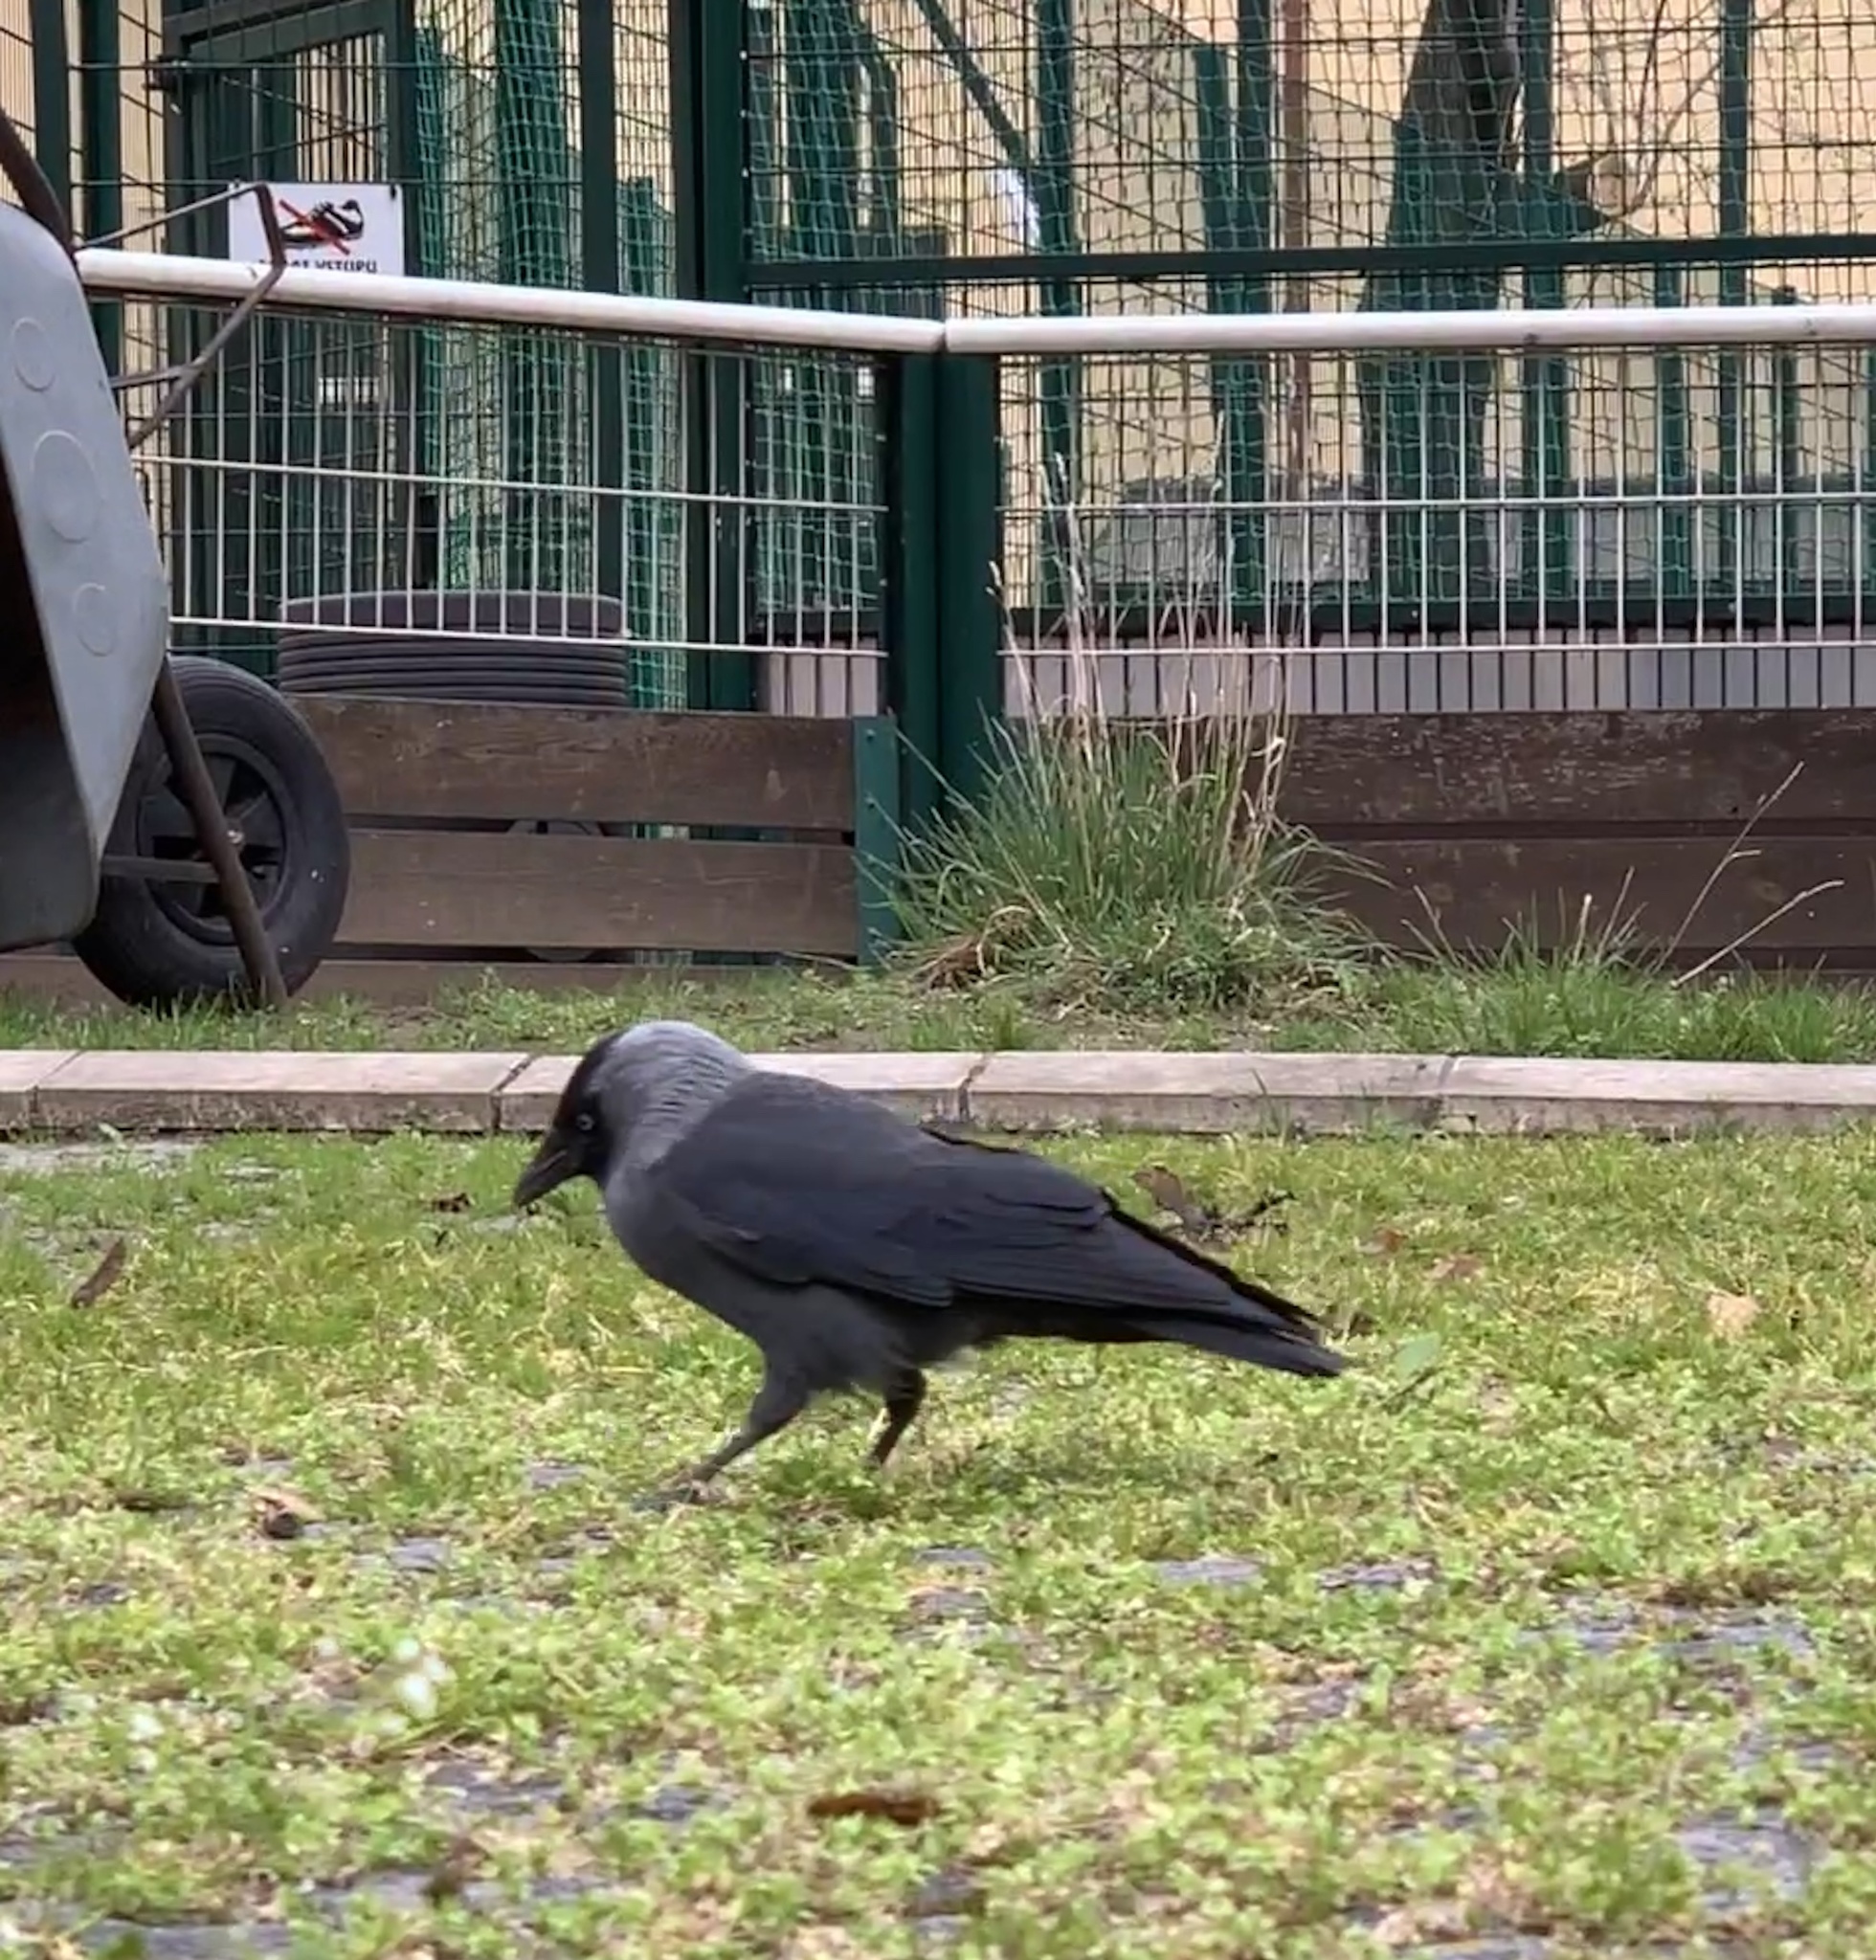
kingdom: Animalia
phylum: Chordata
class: Aves
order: Passeriformes
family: Corvidae
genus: Coloeus
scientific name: Coloeus monedula
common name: Western jackdaw
